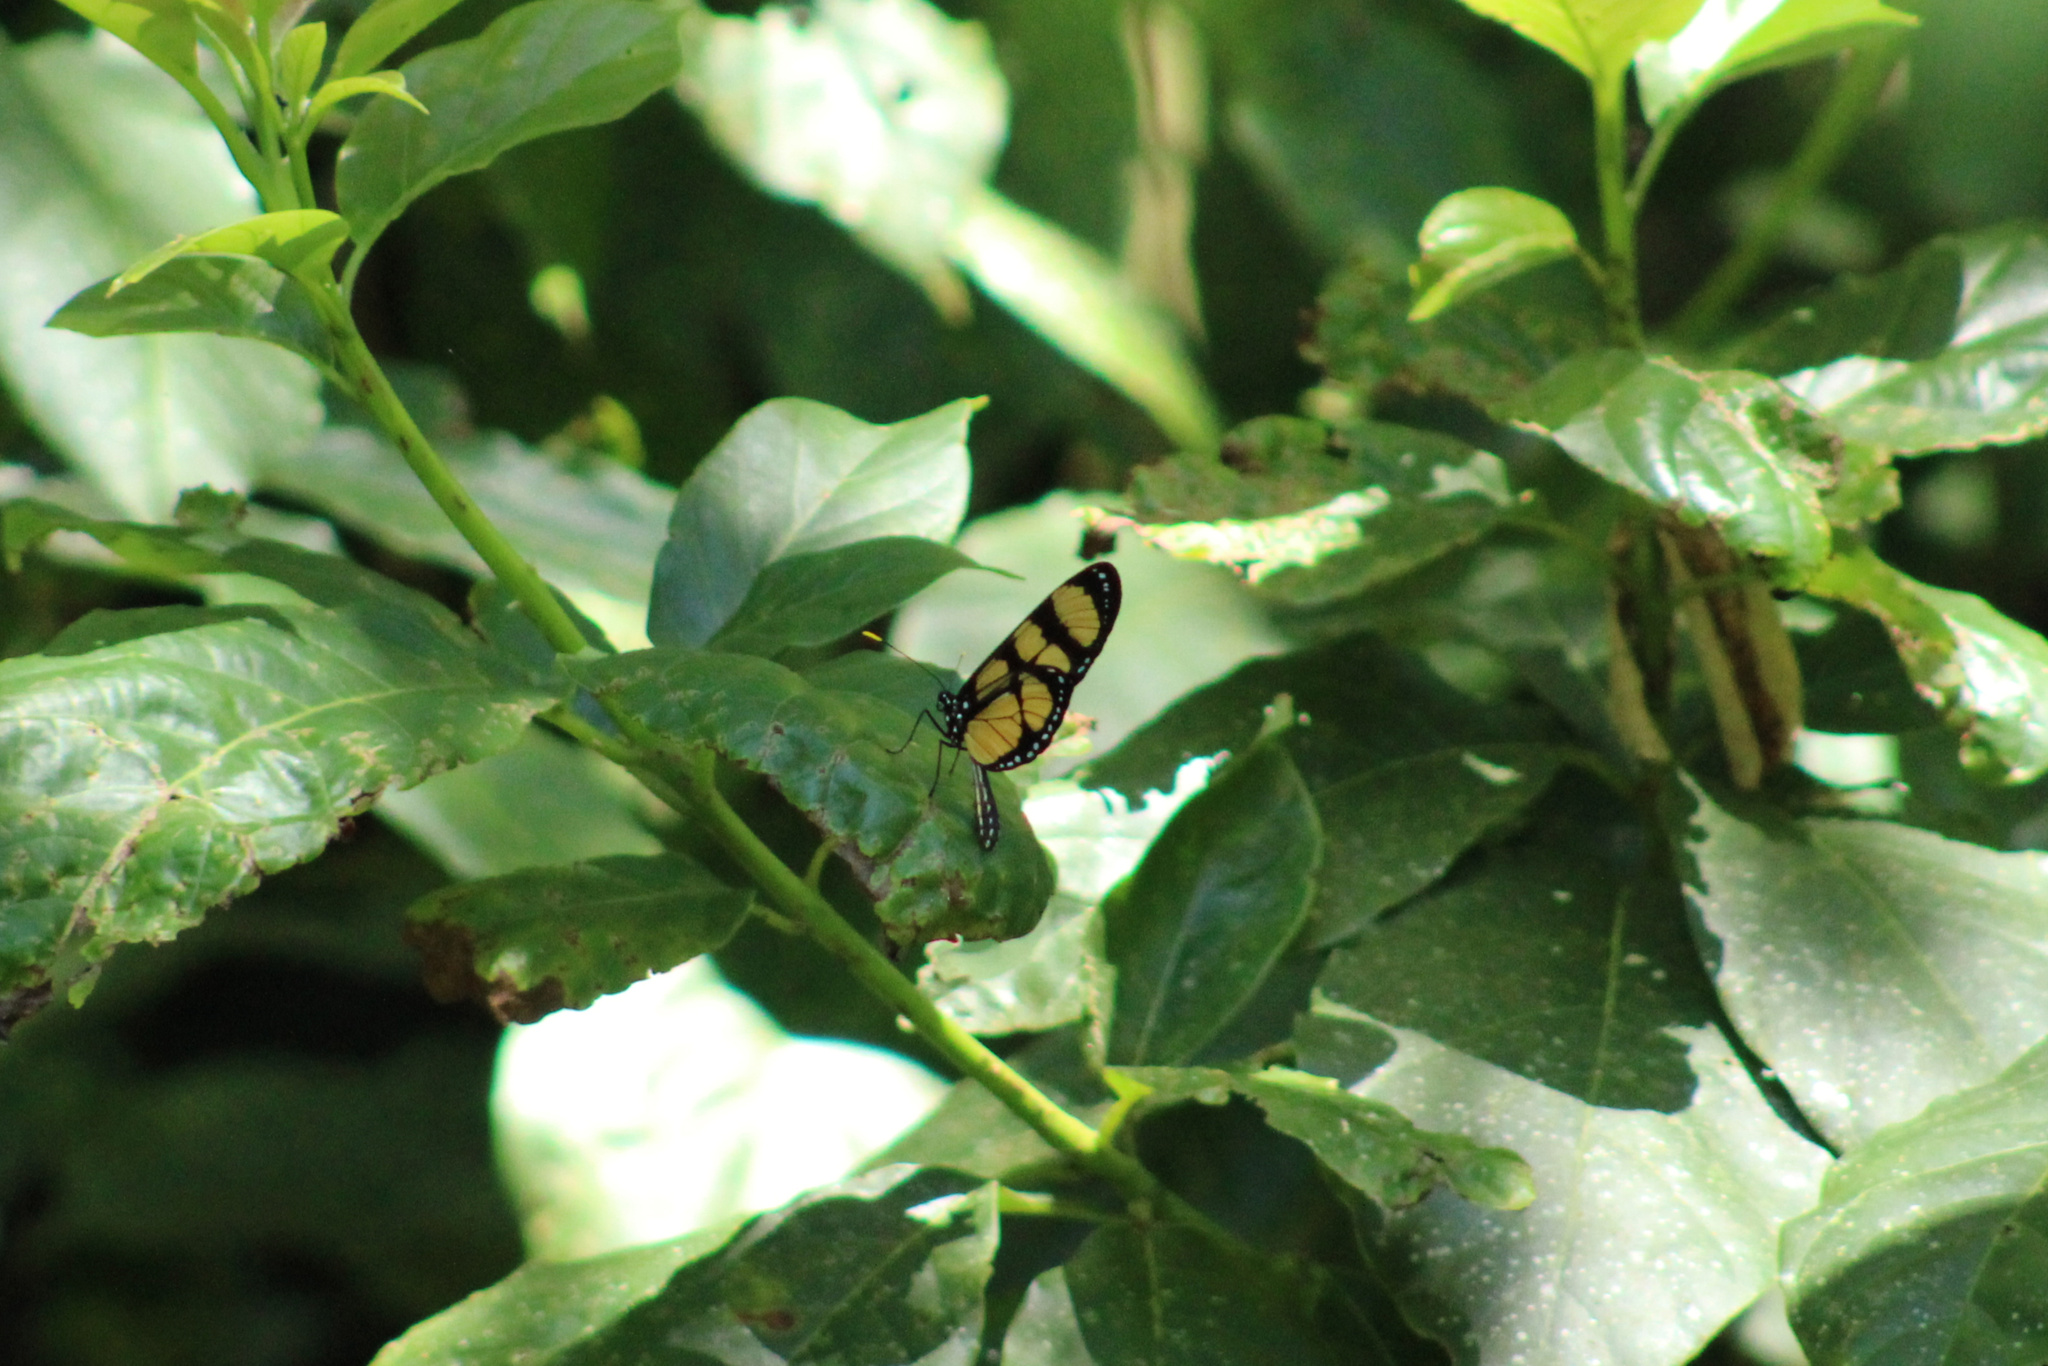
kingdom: Animalia
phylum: Arthropoda
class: Insecta
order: Lepidoptera
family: Nymphalidae
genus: Thyridia
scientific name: Thyridia psidii
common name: Melantho tigerwing
